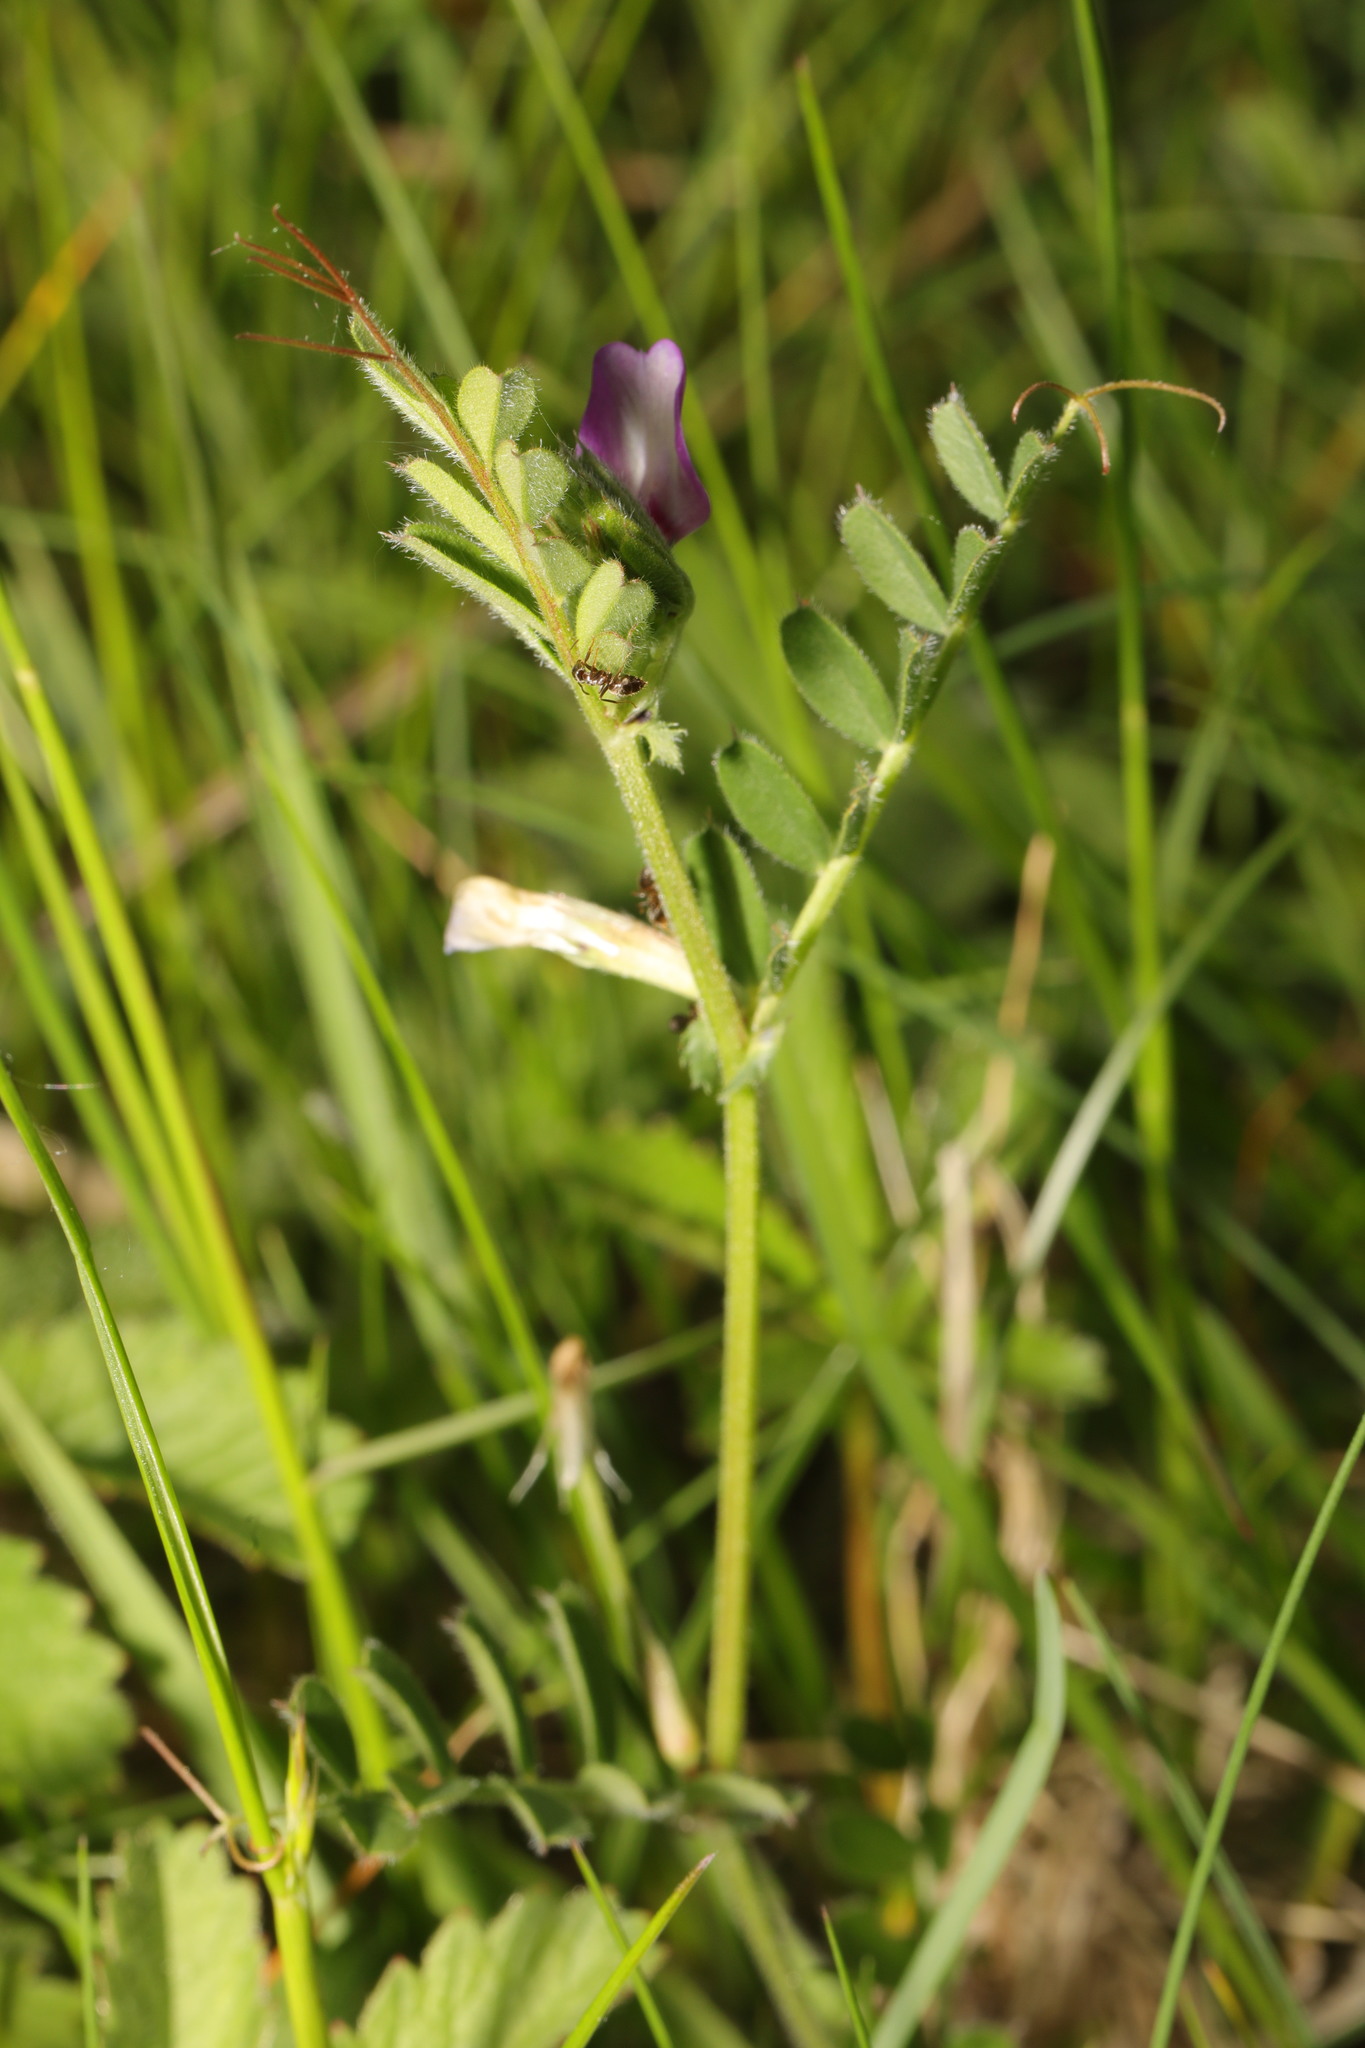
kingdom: Plantae
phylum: Tracheophyta
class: Magnoliopsida
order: Fabales
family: Fabaceae
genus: Vicia
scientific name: Vicia sativa
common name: Garden vetch
